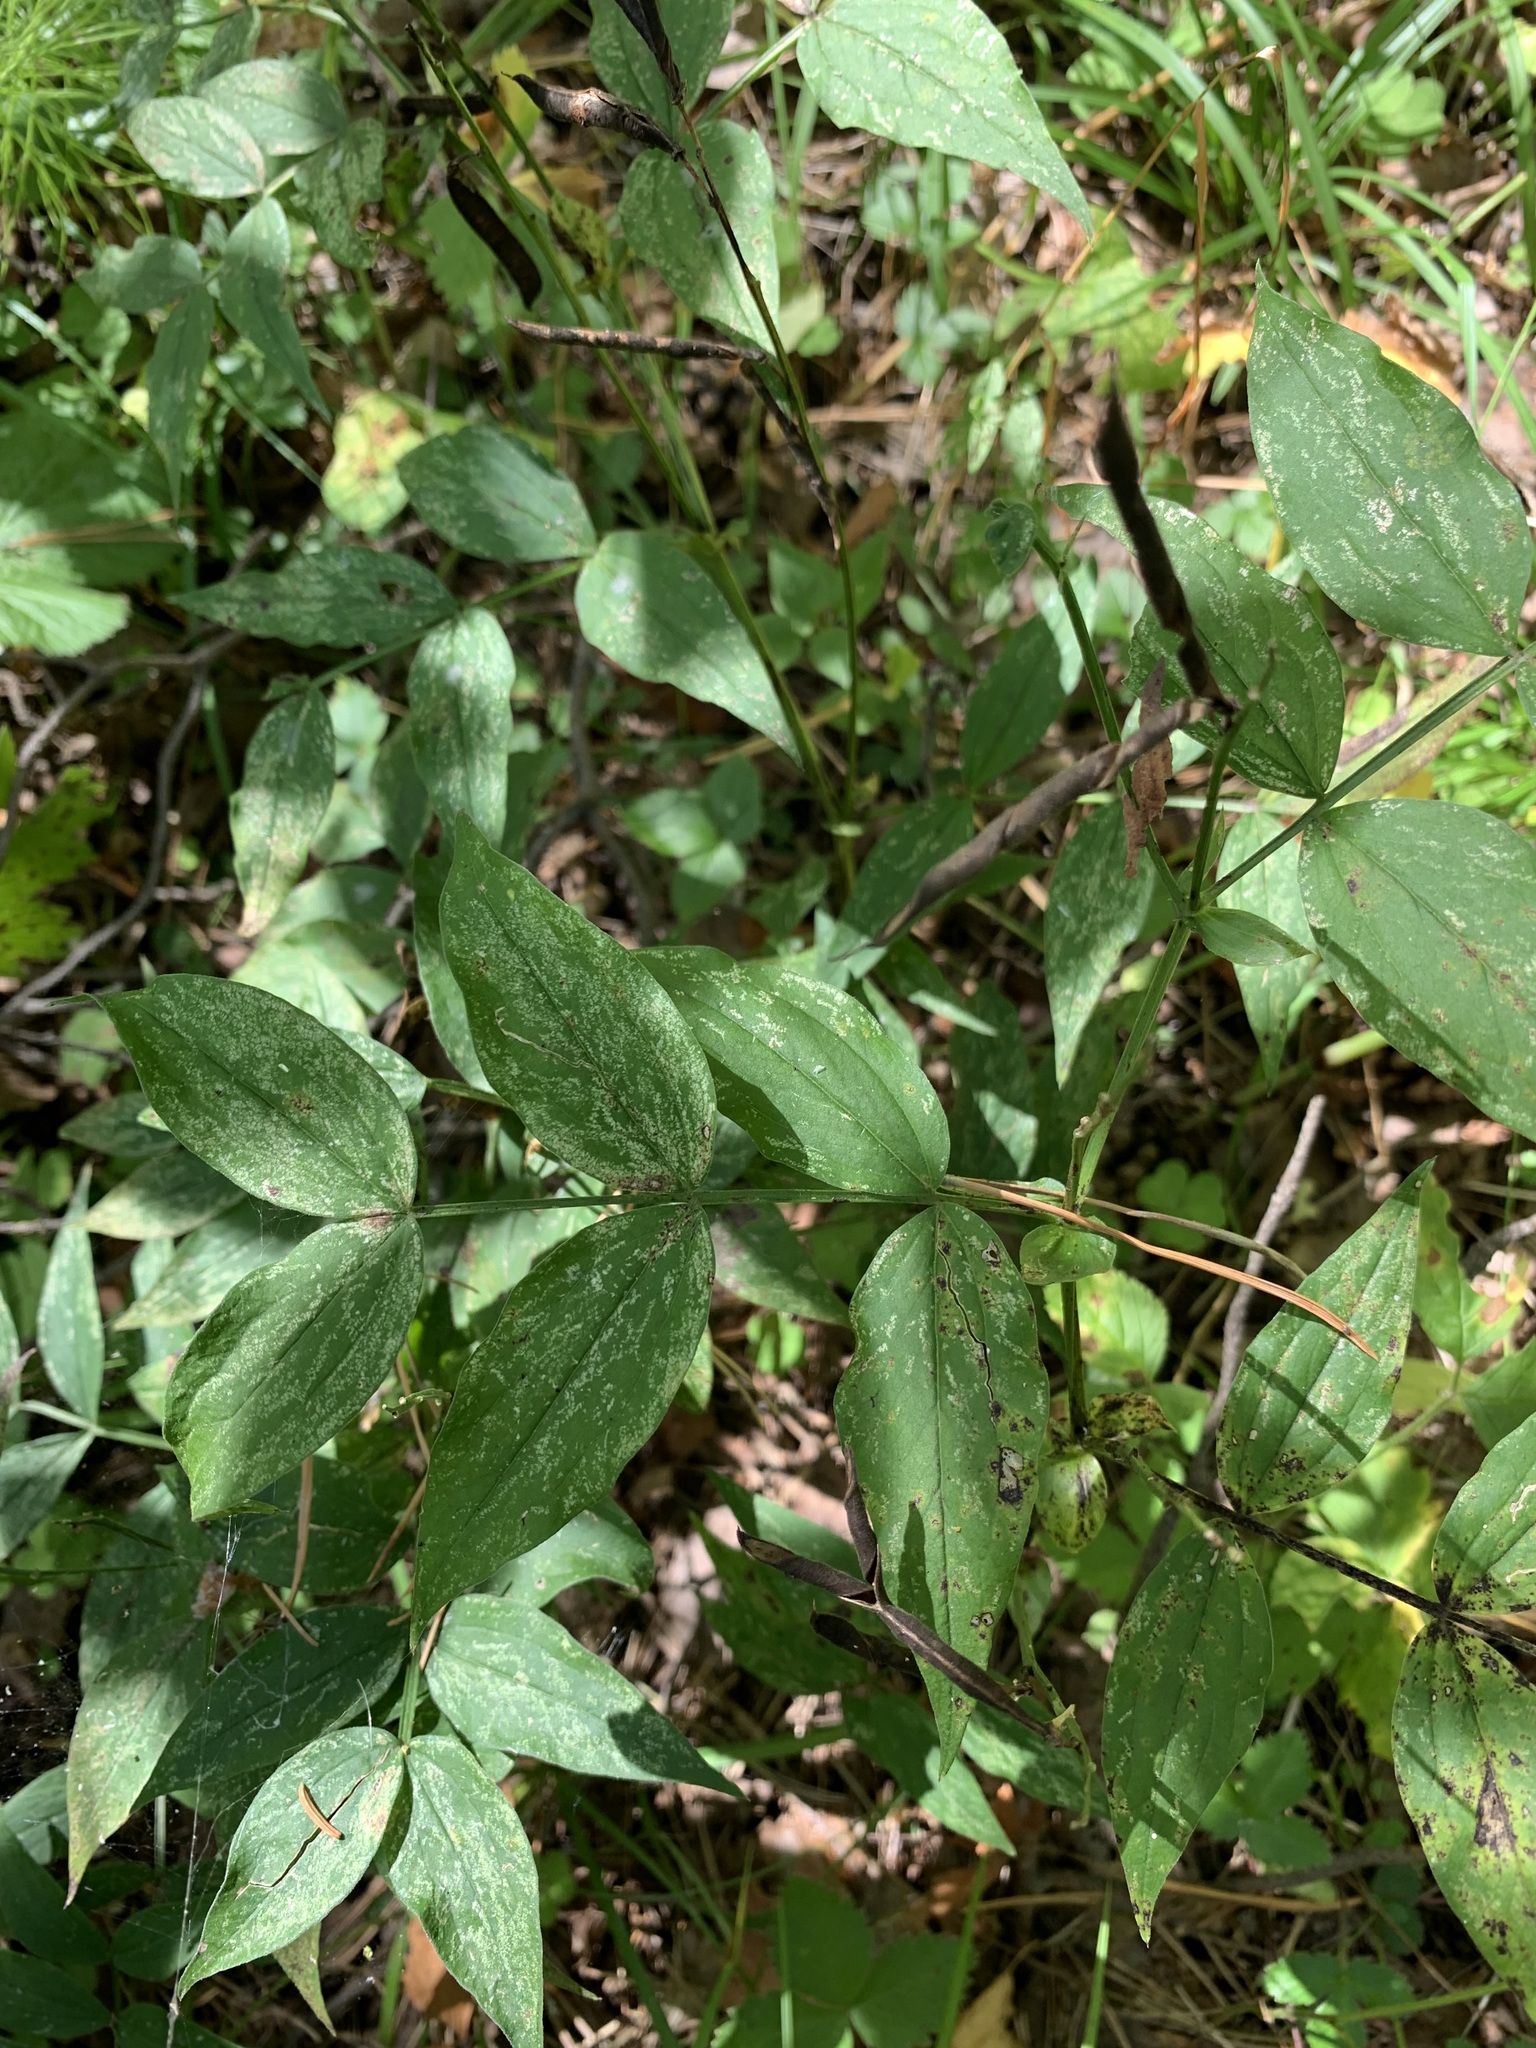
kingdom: Plantae
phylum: Tracheophyta
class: Magnoliopsida
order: Fabales
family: Fabaceae
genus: Lathyrus
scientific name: Lathyrus vernus
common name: Spring pea
